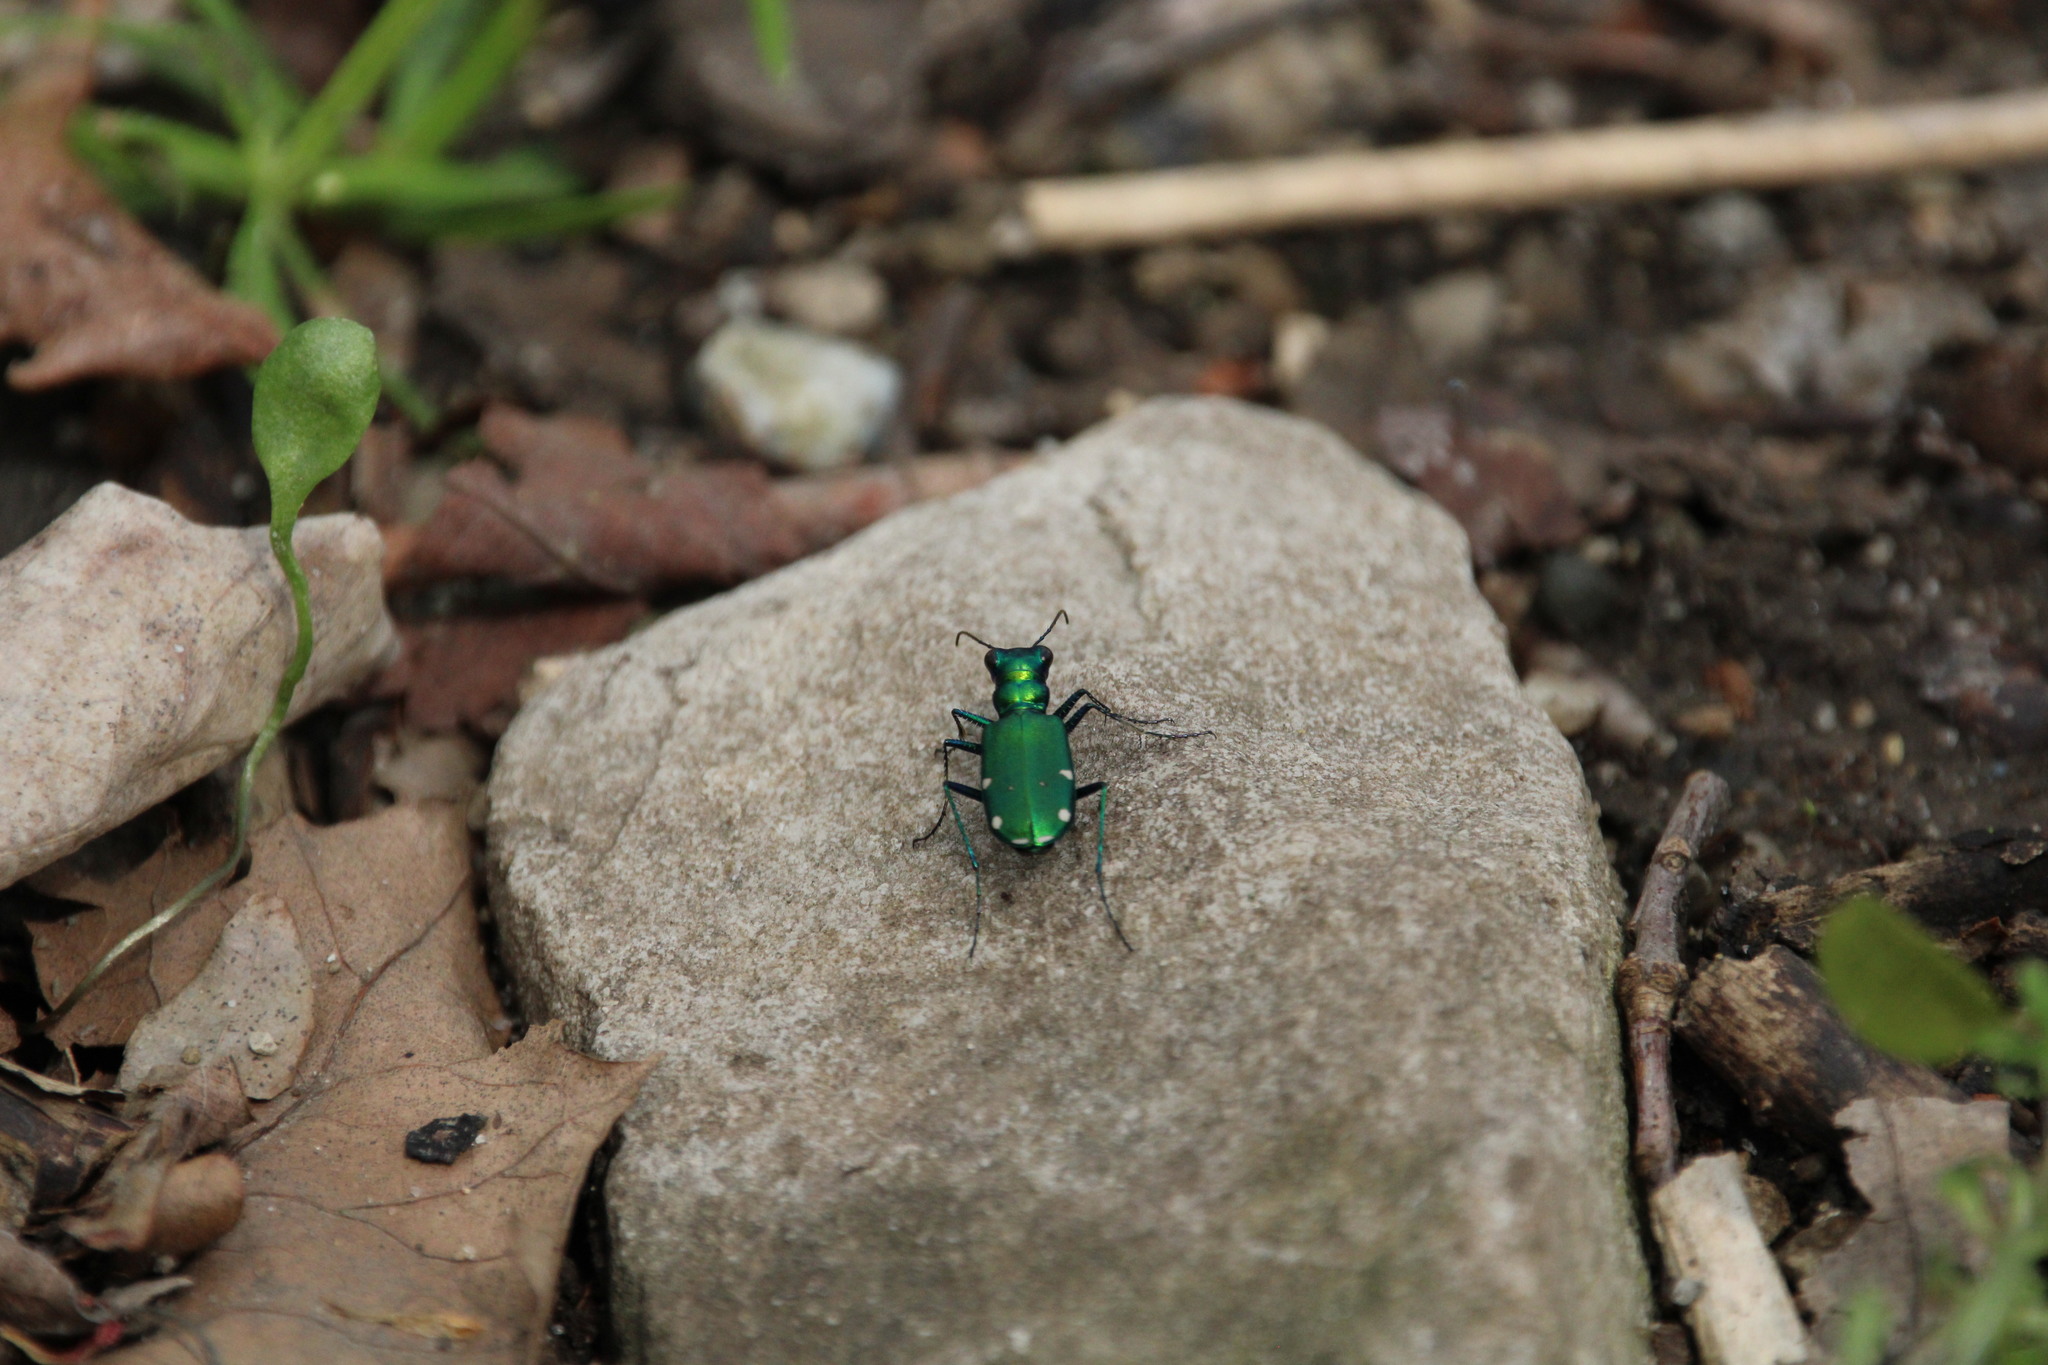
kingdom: Animalia
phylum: Arthropoda
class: Insecta
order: Coleoptera
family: Carabidae
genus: Cicindela
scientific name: Cicindela sexguttata
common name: Six-spotted tiger beetle
